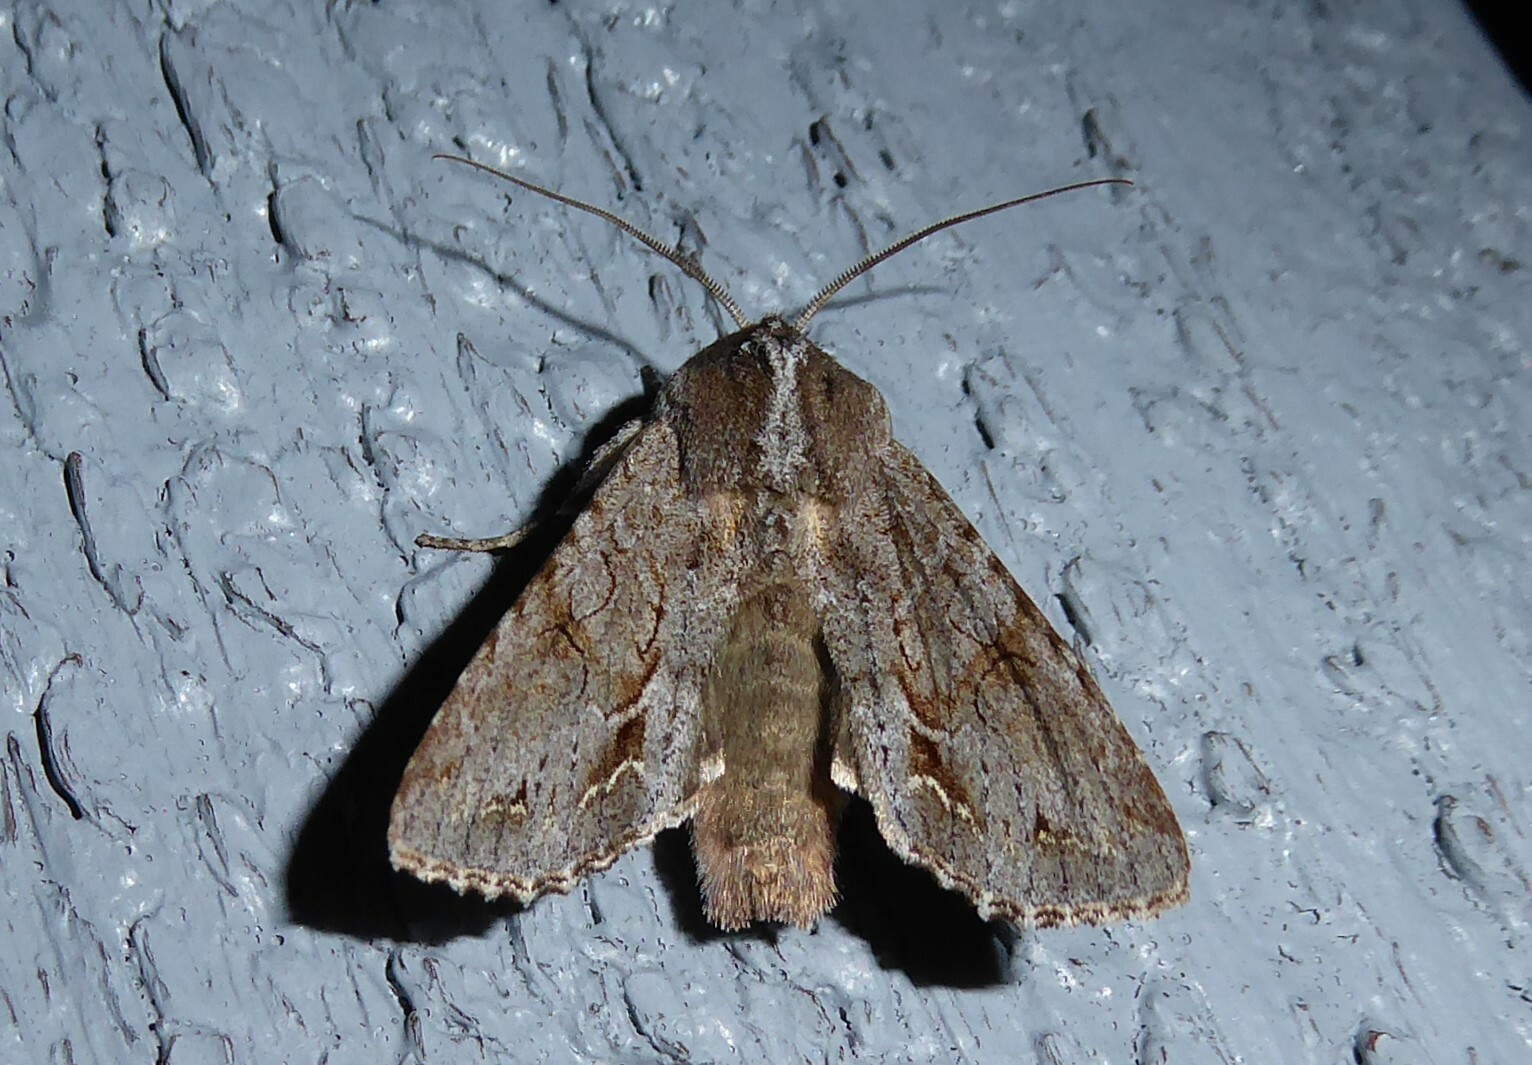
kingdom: Animalia
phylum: Arthropoda
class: Insecta
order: Lepidoptera
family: Noctuidae
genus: Ichneutica
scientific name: Ichneutica
